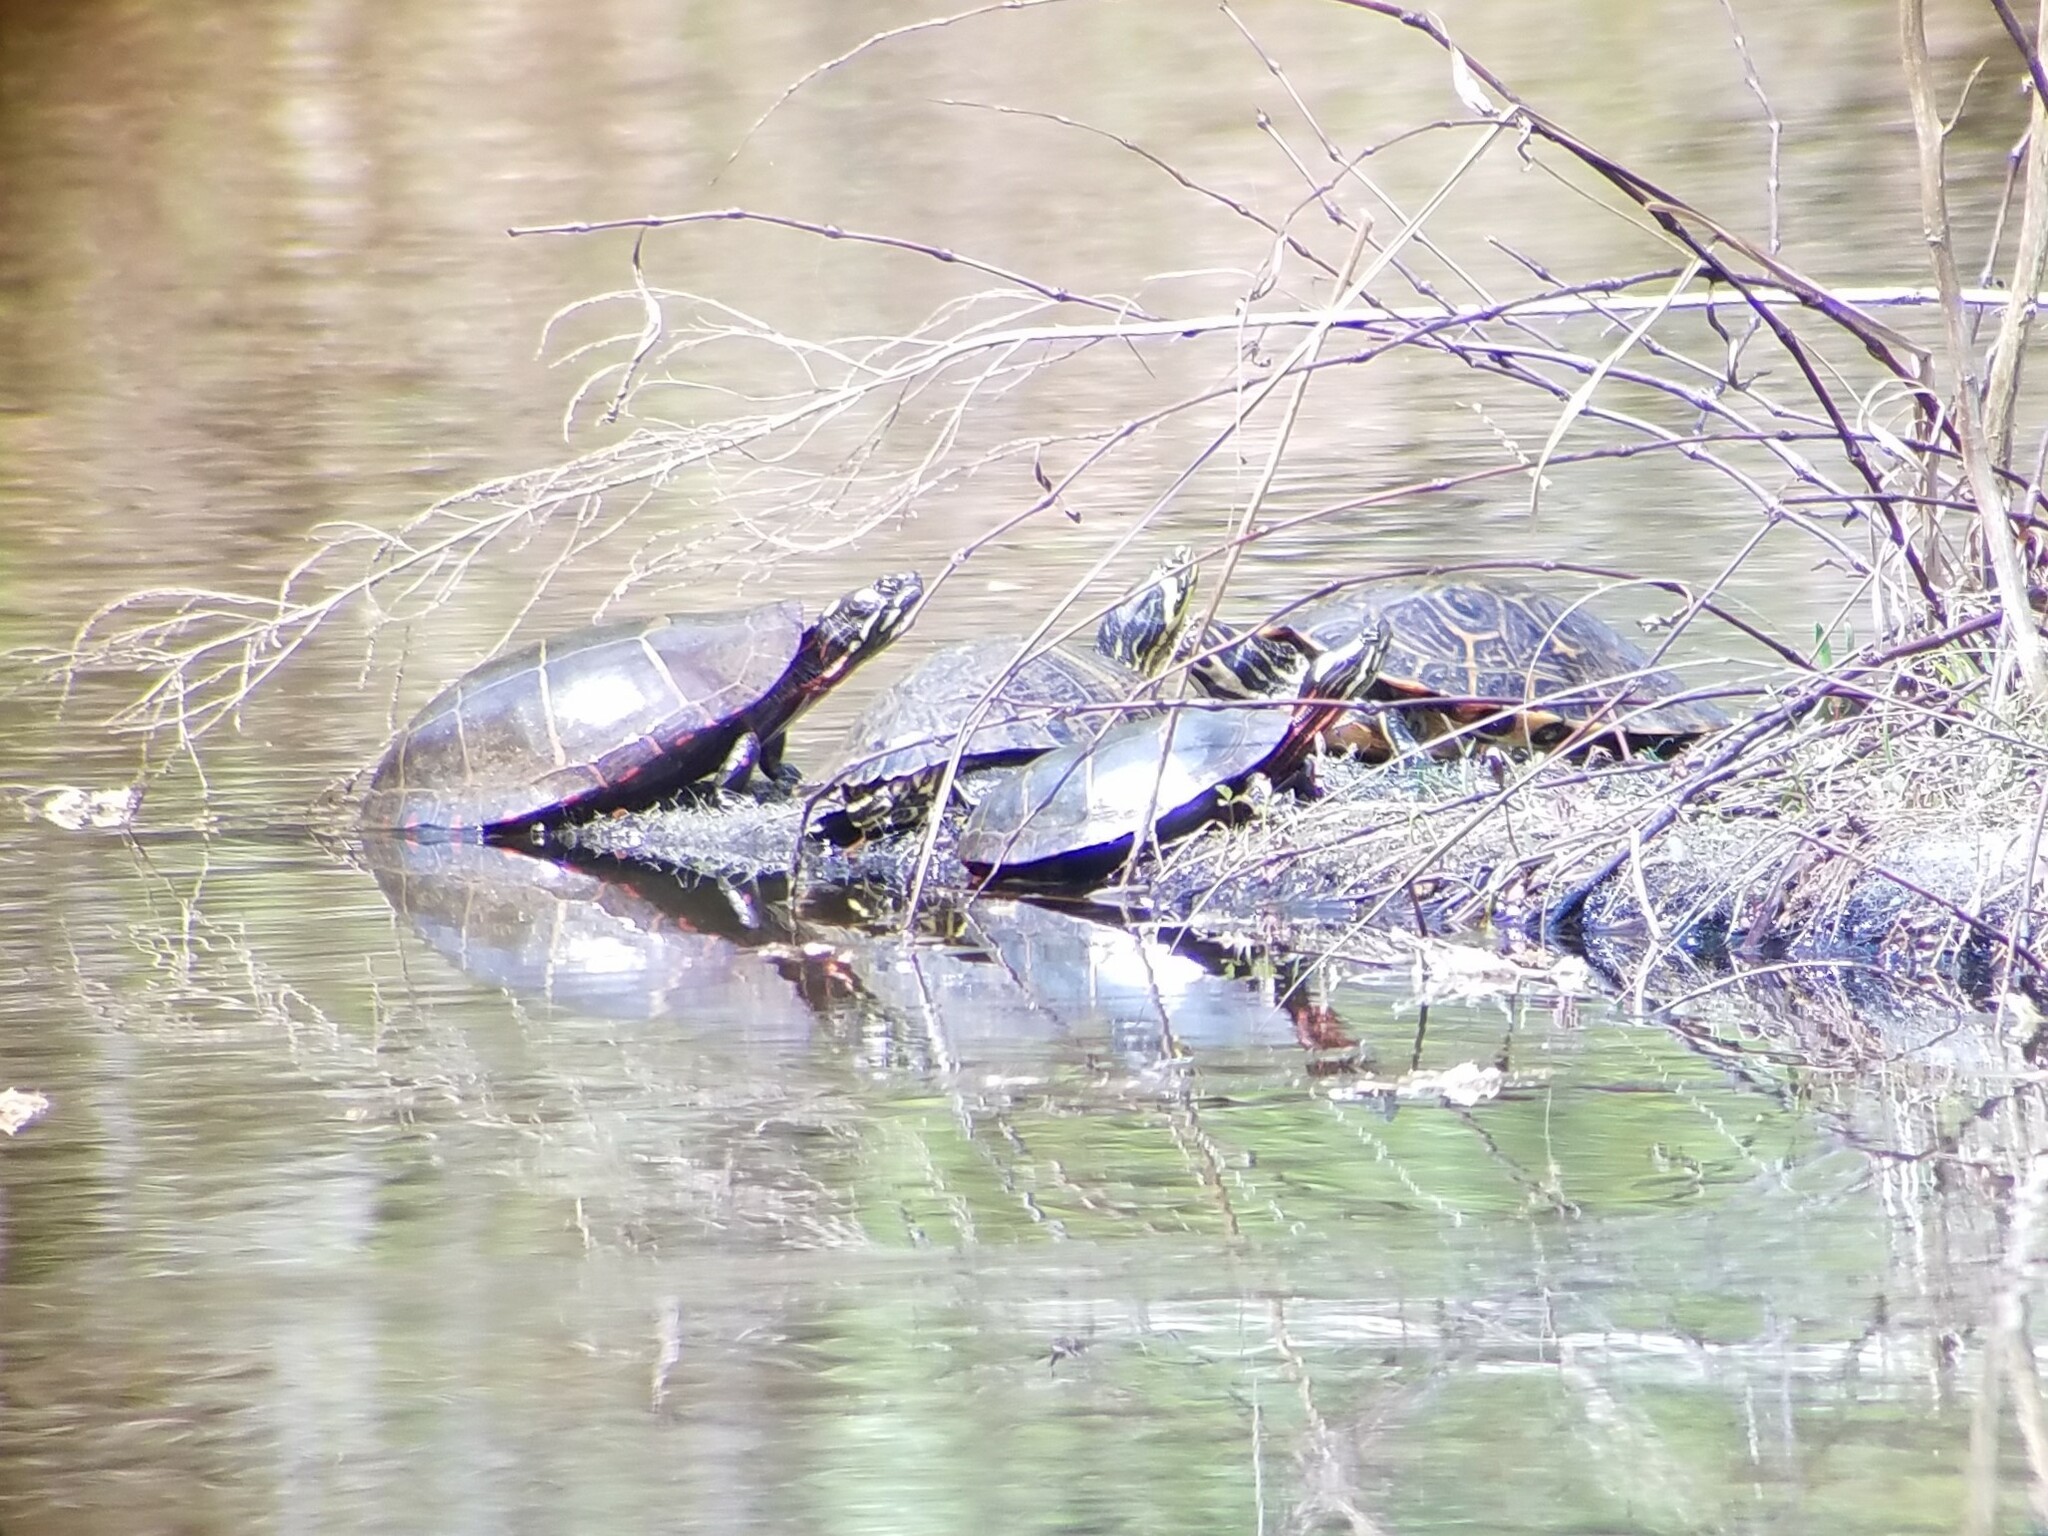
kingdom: Animalia
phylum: Chordata
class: Testudines
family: Emydidae
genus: Chrysemys
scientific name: Chrysemys picta
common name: Painted turtle
